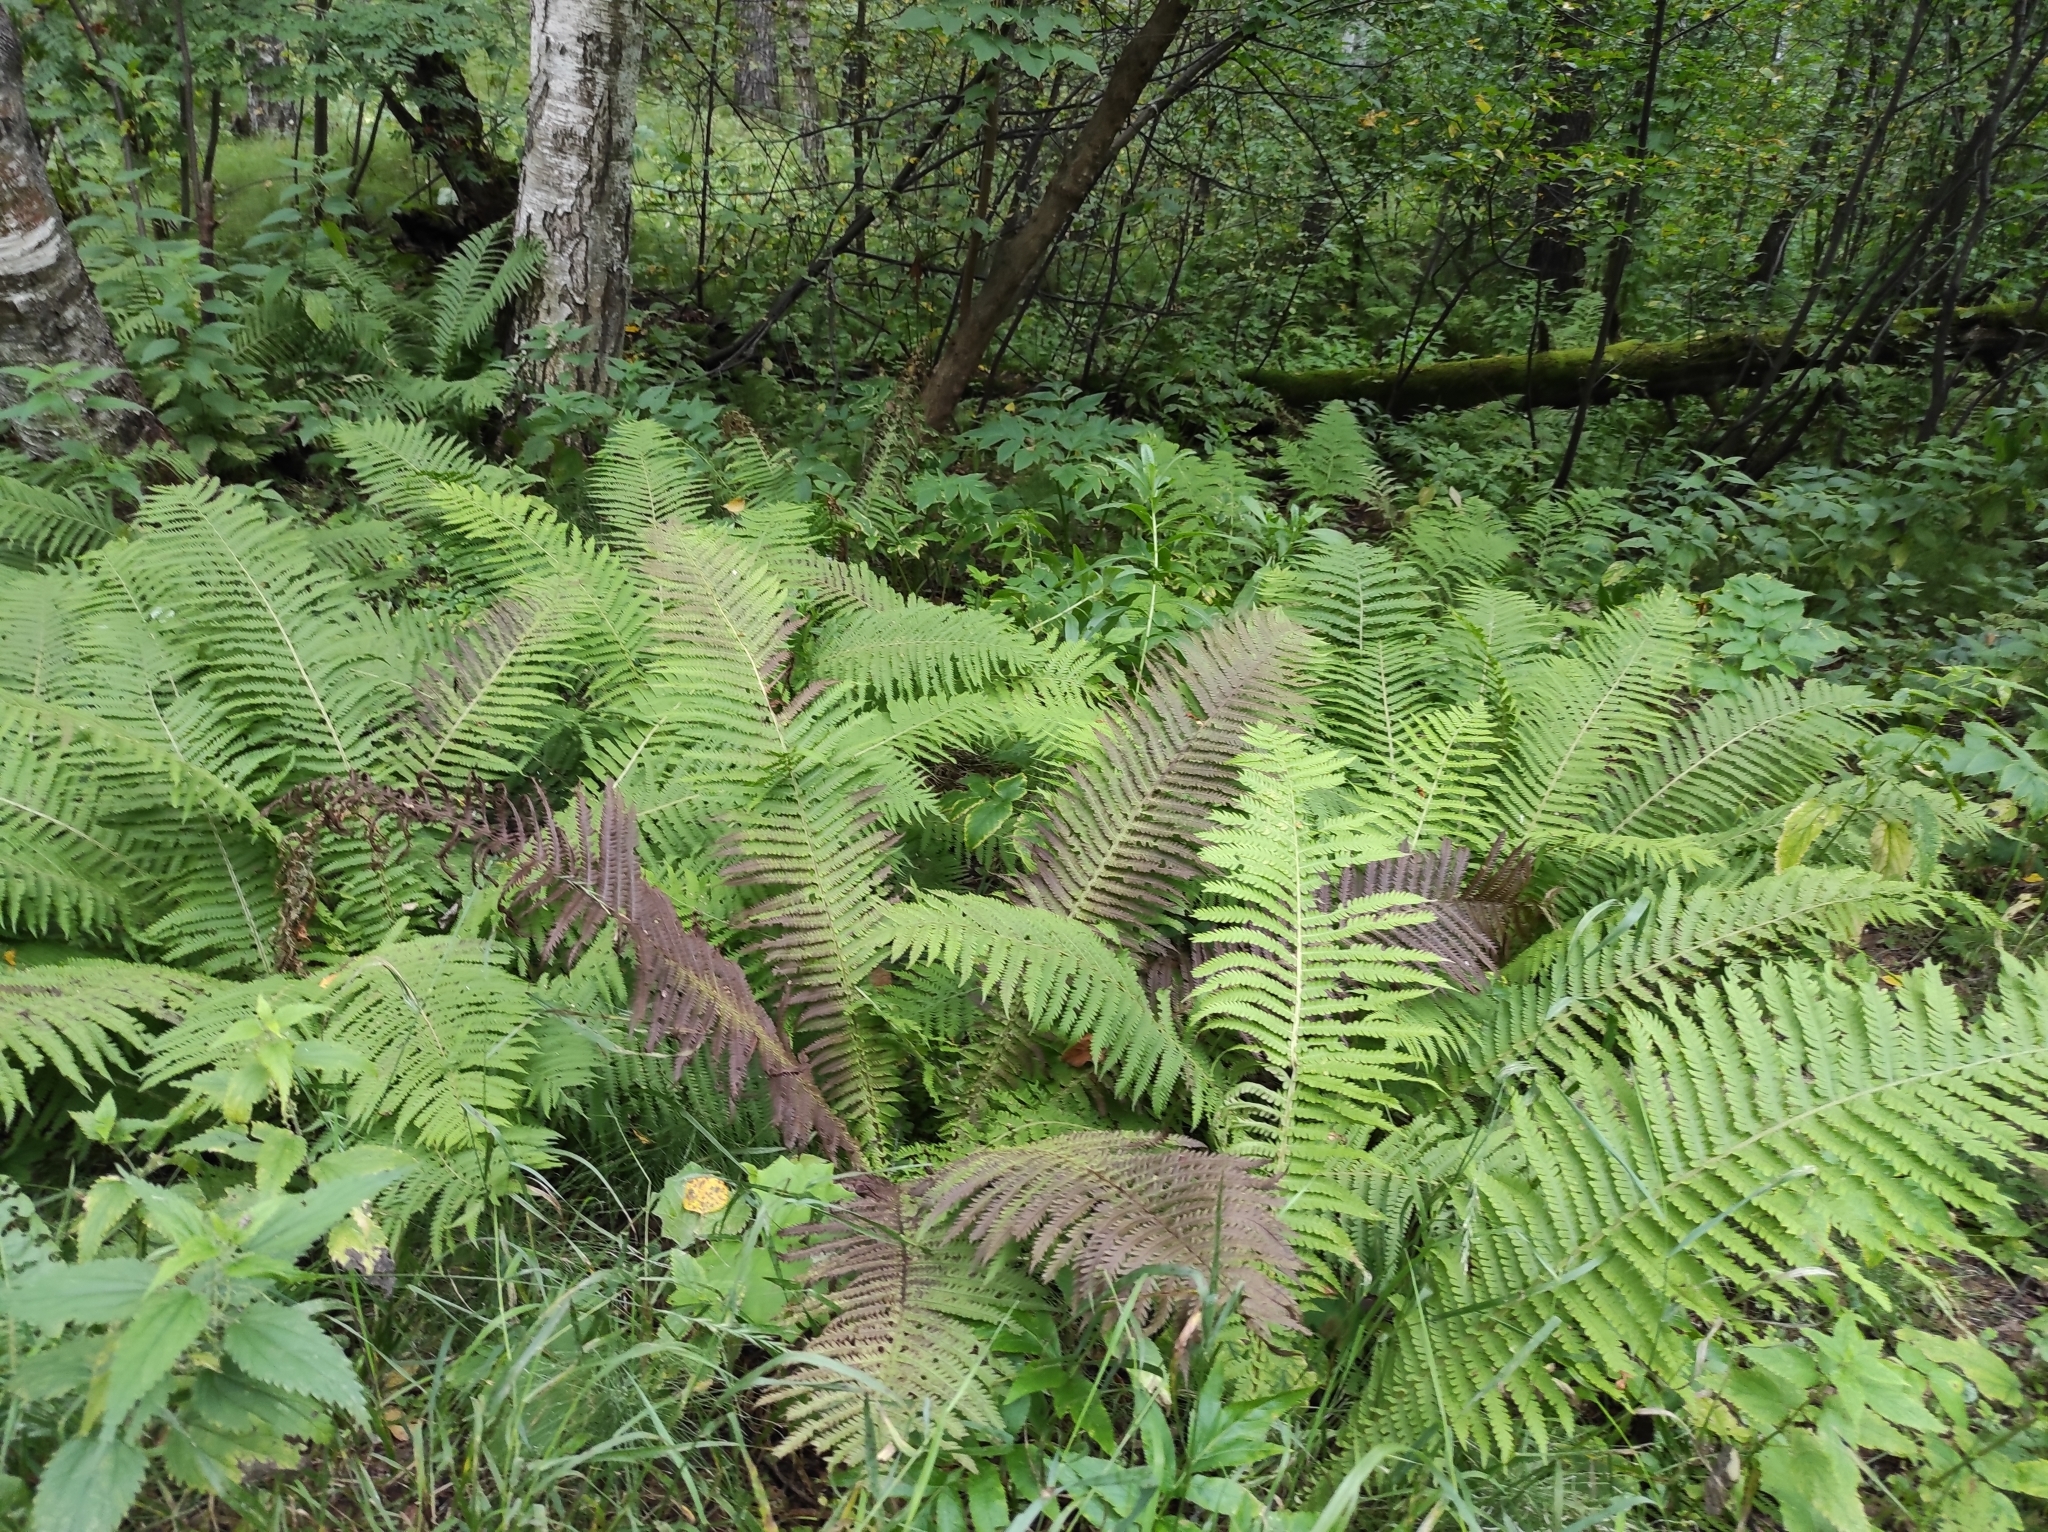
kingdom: Plantae
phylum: Tracheophyta
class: Polypodiopsida
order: Polypodiales
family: Onocleaceae
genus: Matteuccia
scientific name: Matteuccia struthiopteris
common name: Ostrich fern
